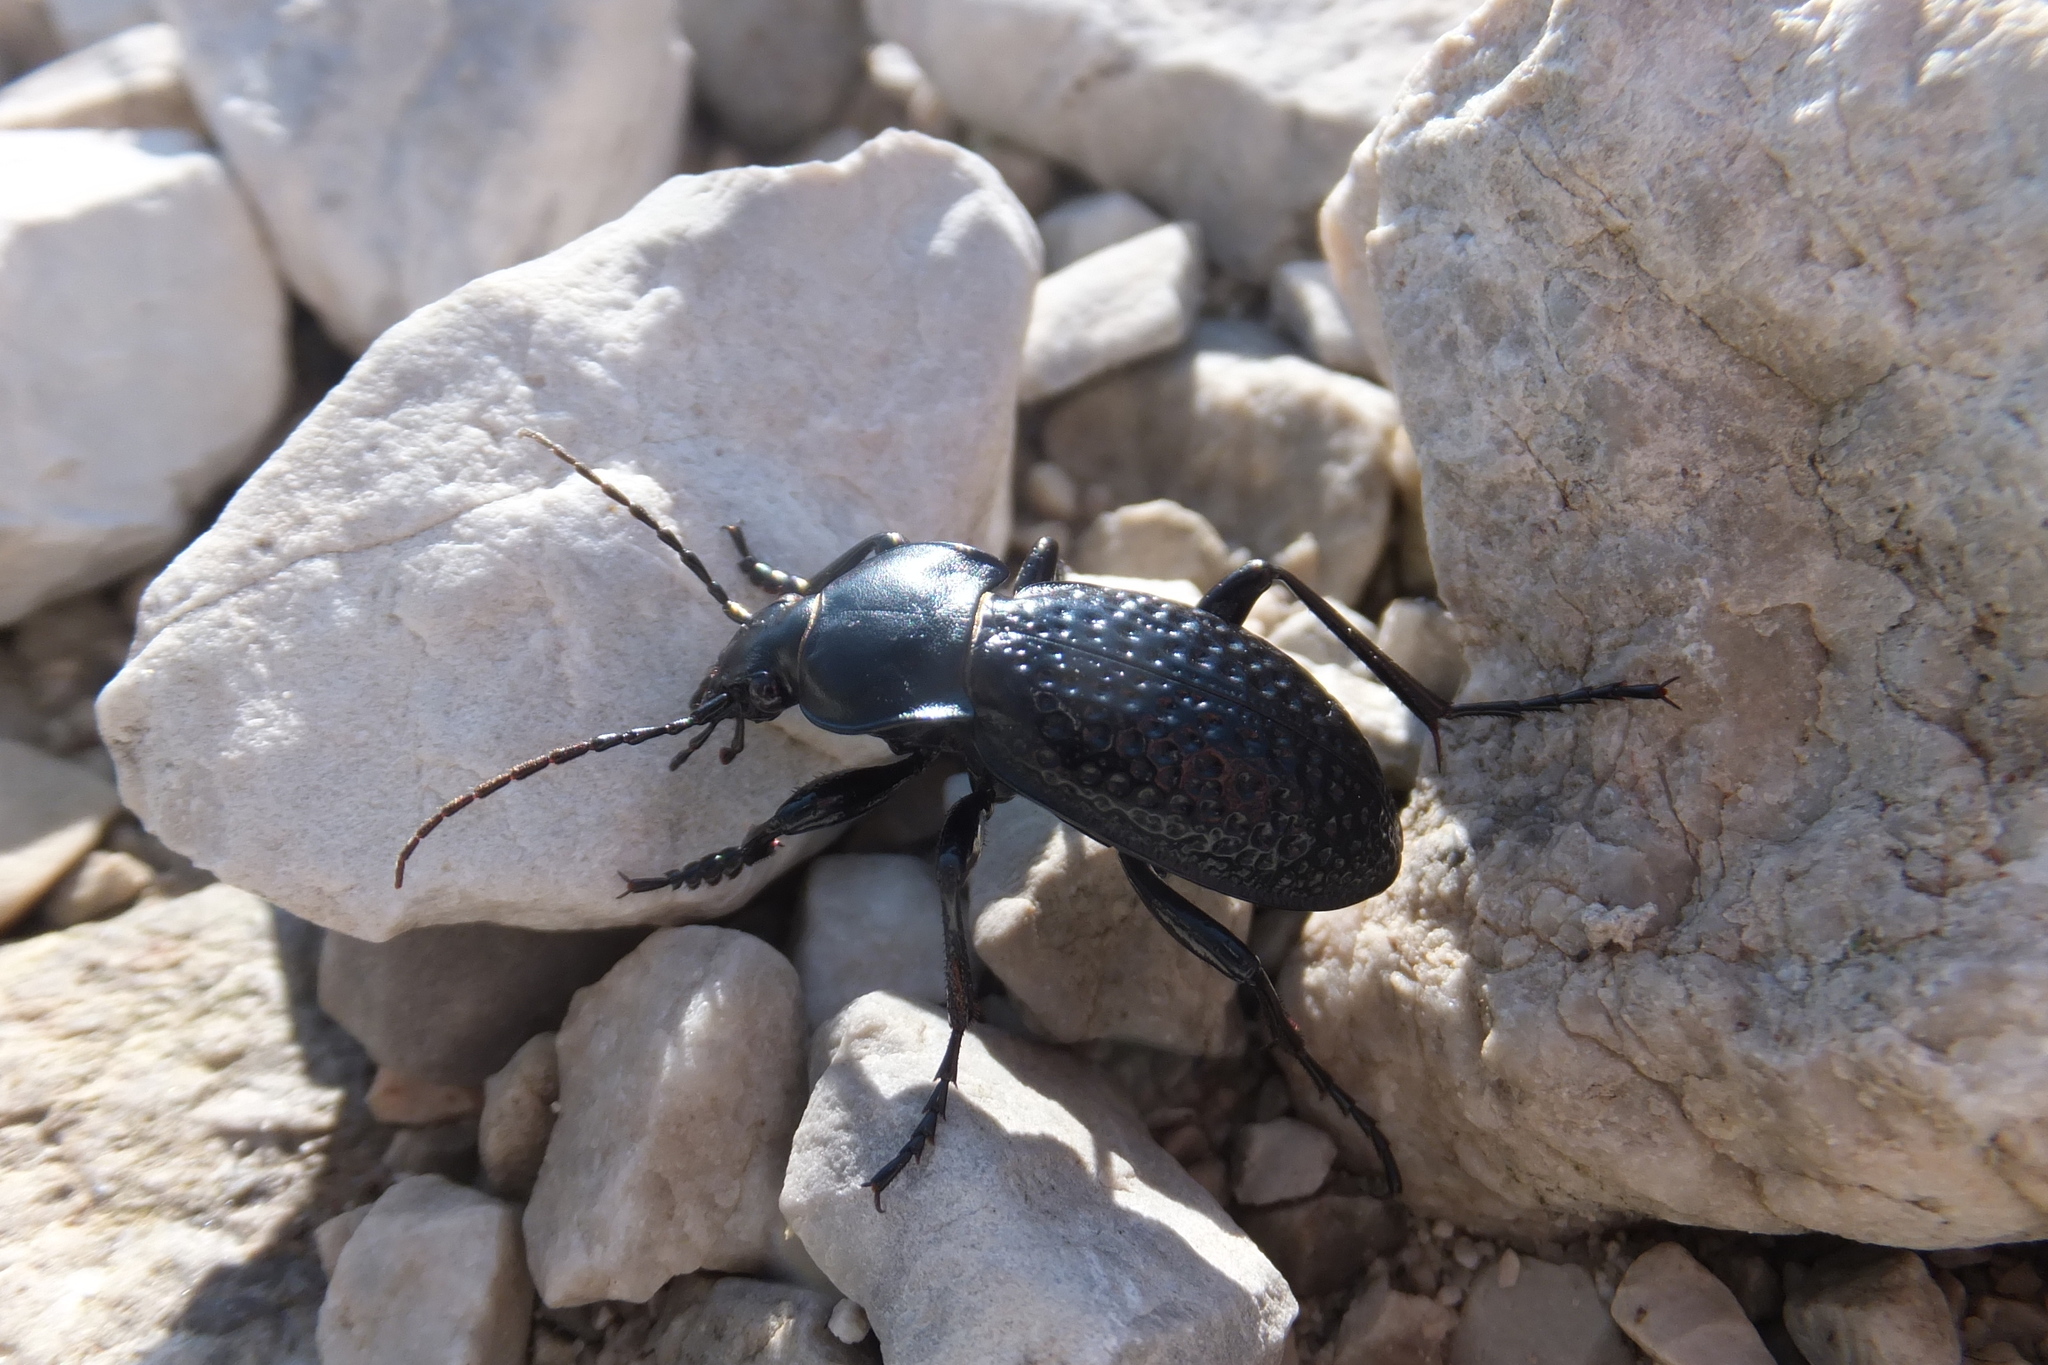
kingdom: Animalia
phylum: Arthropoda
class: Insecta
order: Coleoptera
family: Carabidae
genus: Carabus
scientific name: Carabus cavernosus
